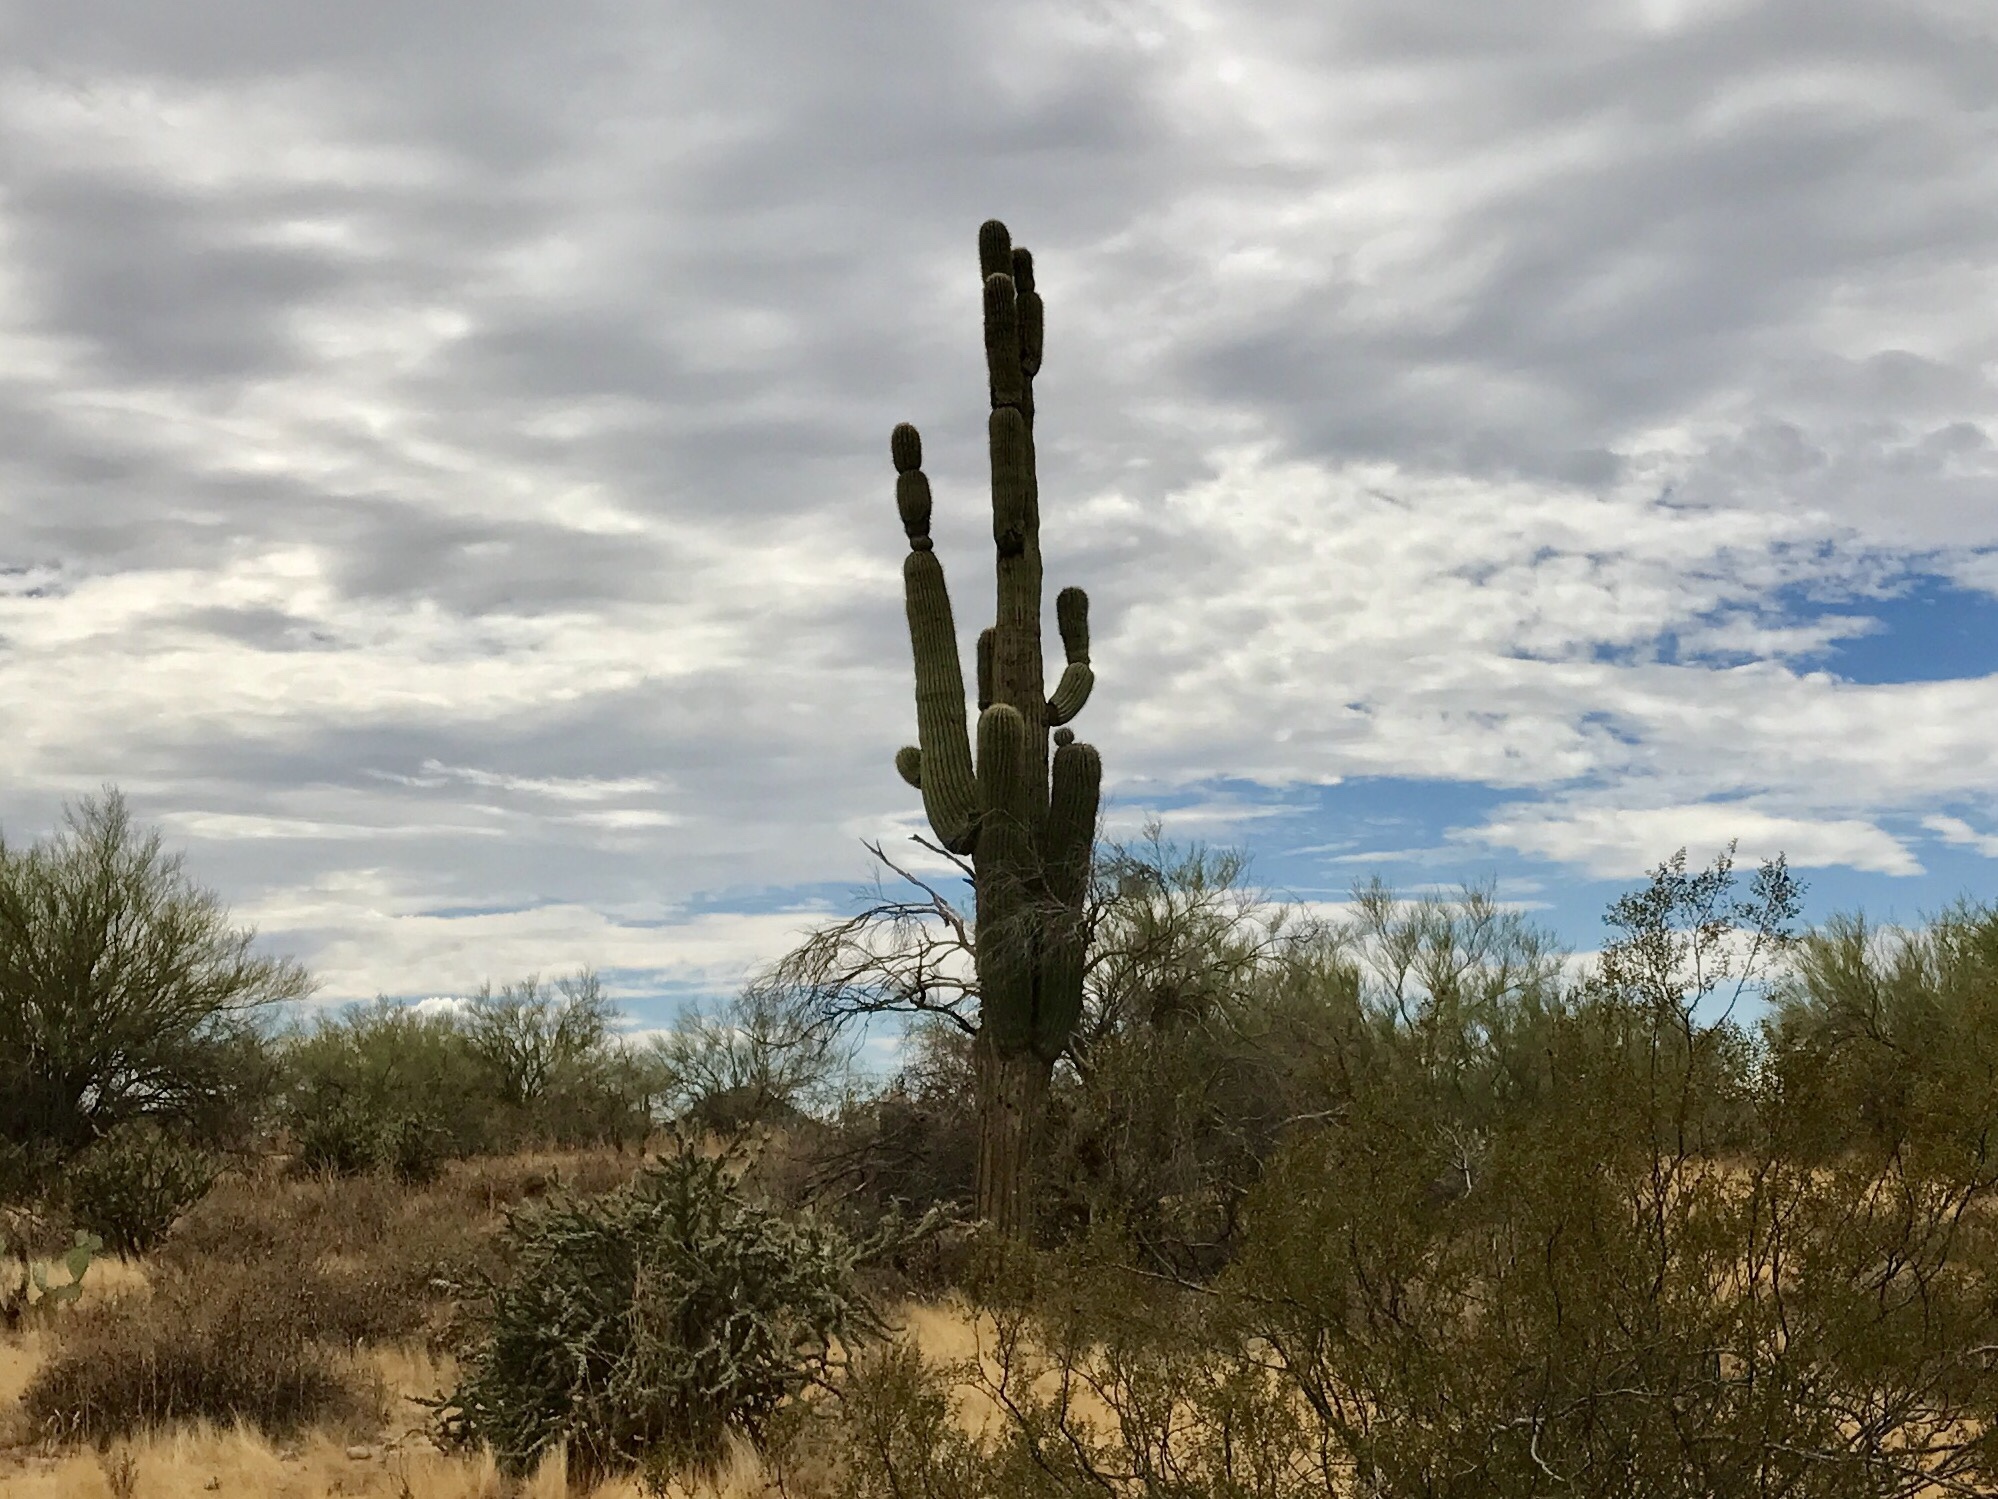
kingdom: Plantae
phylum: Tracheophyta
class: Magnoliopsida
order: Caryophyllales
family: Cactaceae
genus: Carnegiea
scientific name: Carnegiea gigantea
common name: Saguaro
